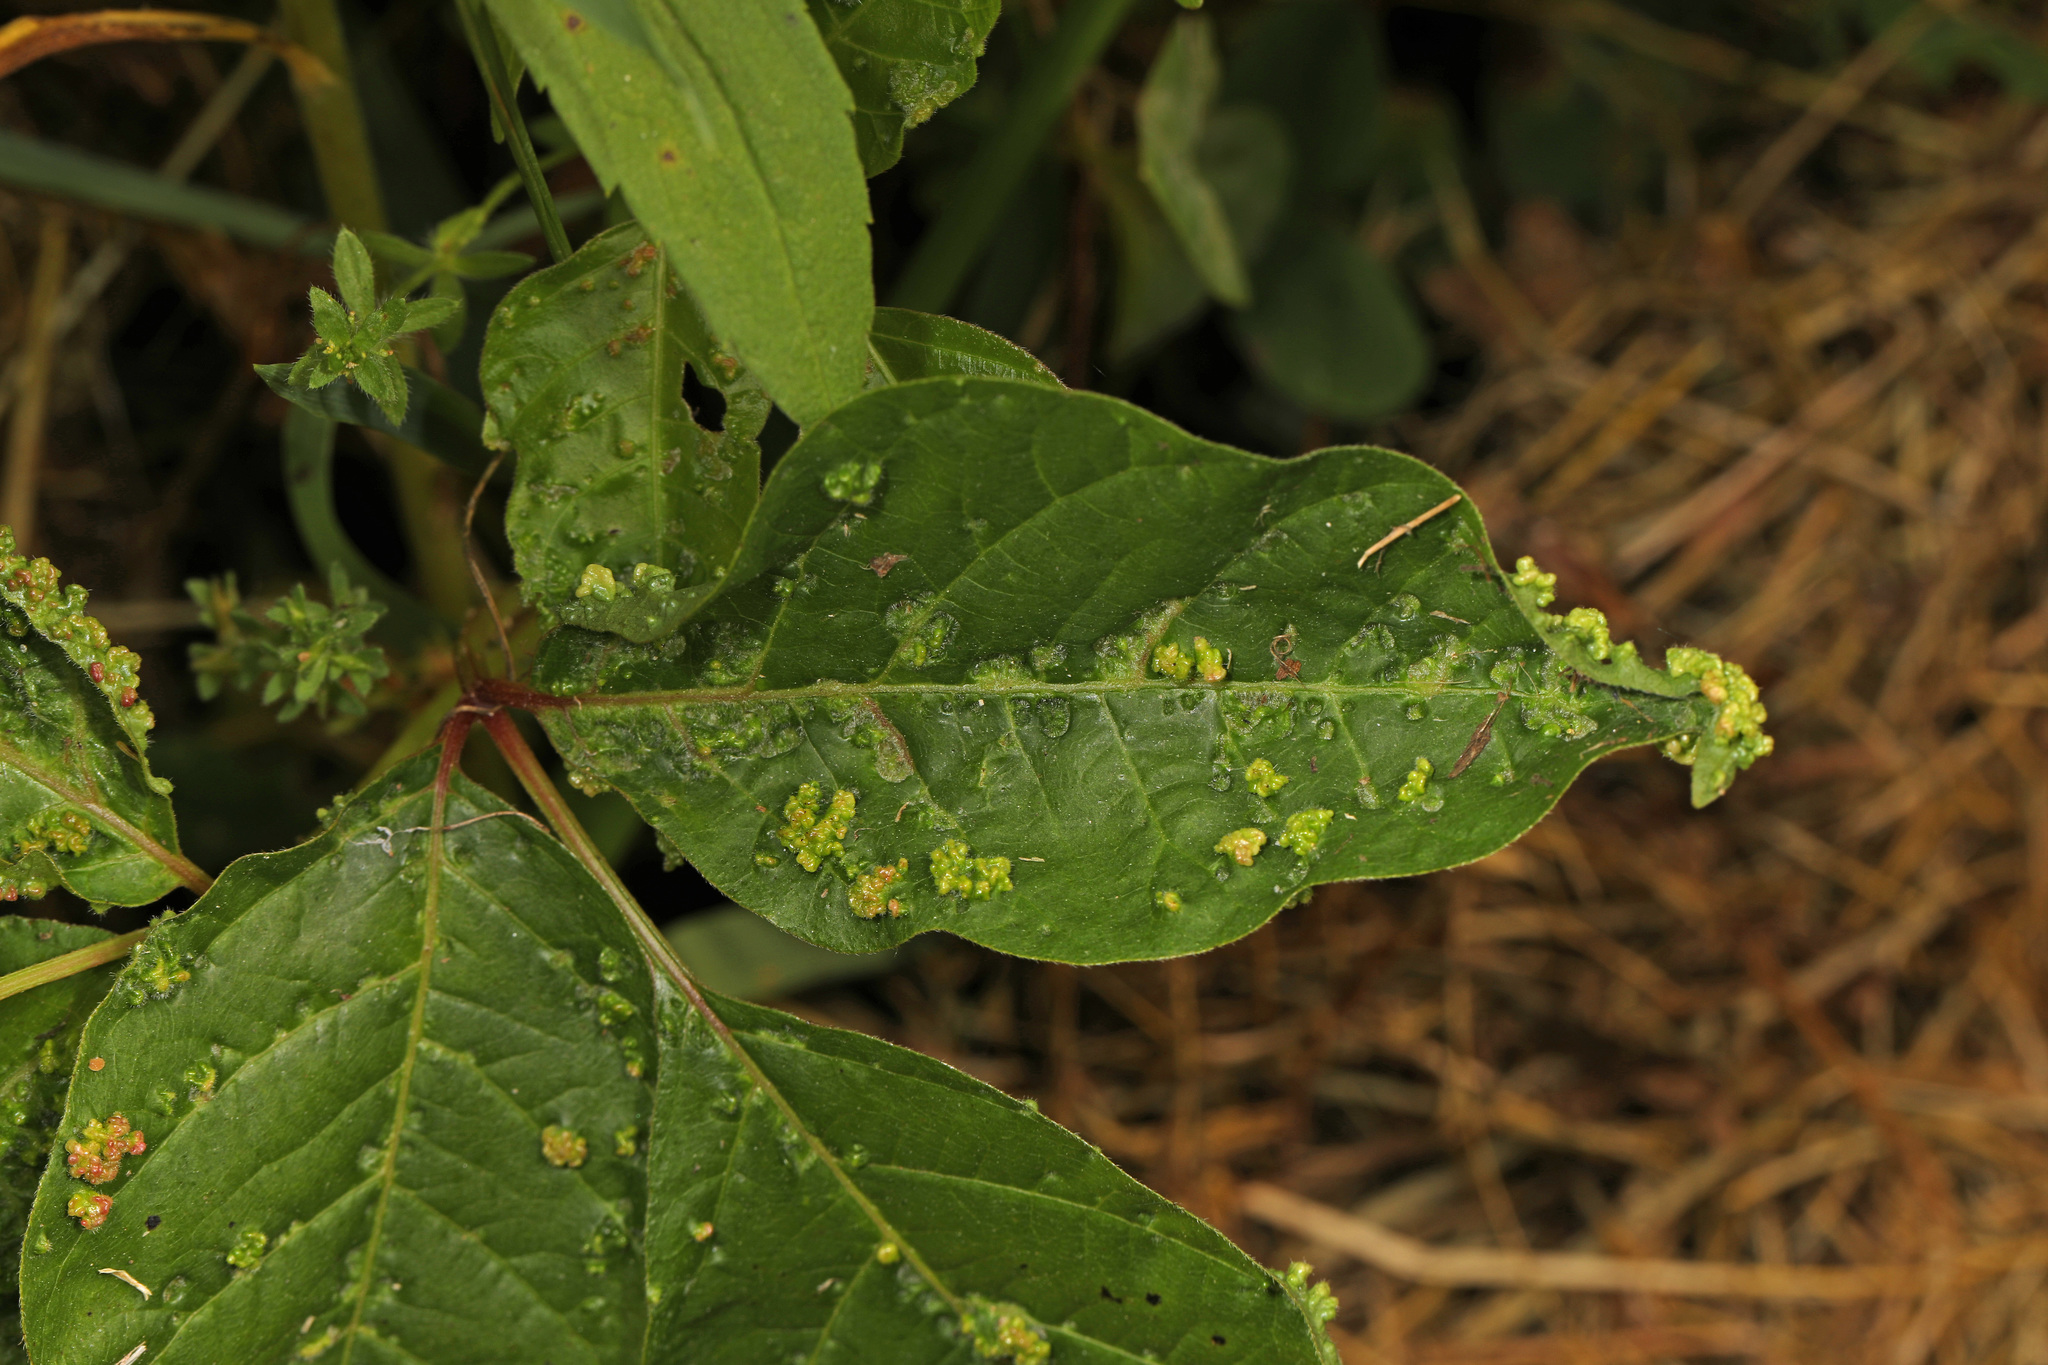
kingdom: Animalia
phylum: Arthropoda
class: Arachnida
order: Trombidiformes
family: Eriophyidae
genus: Aculops
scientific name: Aculops
